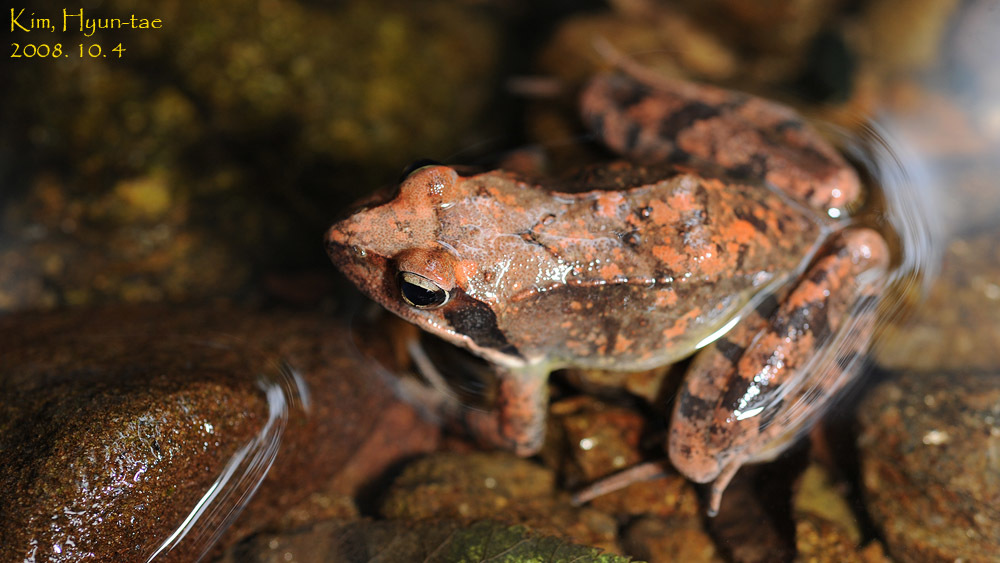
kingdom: Animalia
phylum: Chordata
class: Amphibia
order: Anura
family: Ranidae
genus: Rana
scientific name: Rana uenoi
